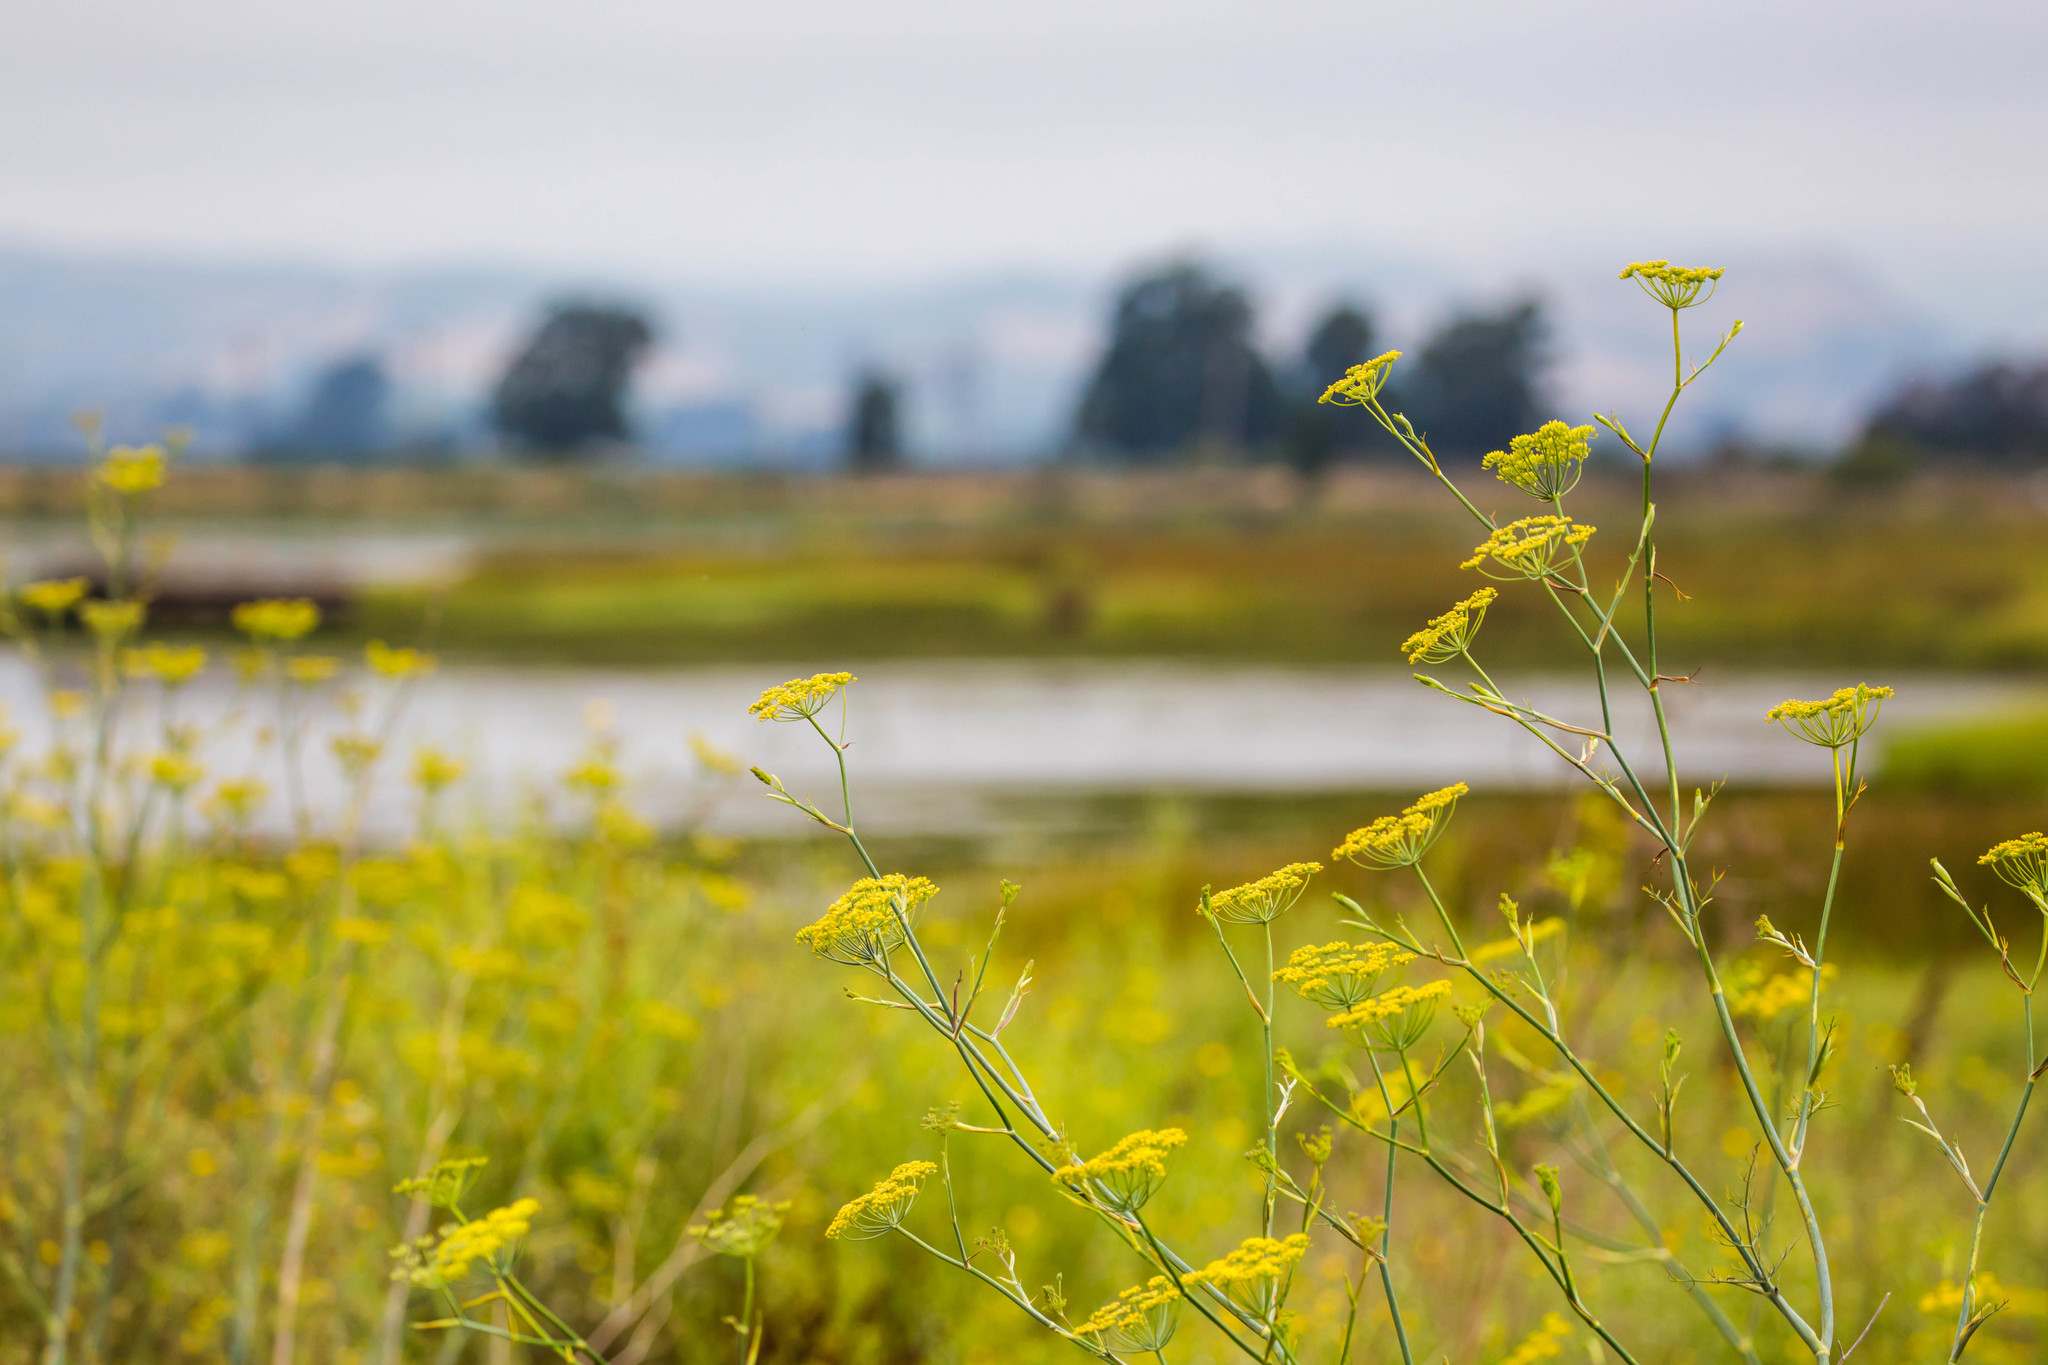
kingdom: Plantae
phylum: Tracheophyta
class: Magnoliopsida
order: Apiales
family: Apiaceae
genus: Foeniculum
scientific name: Foeniculum vulgare
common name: Fennel
